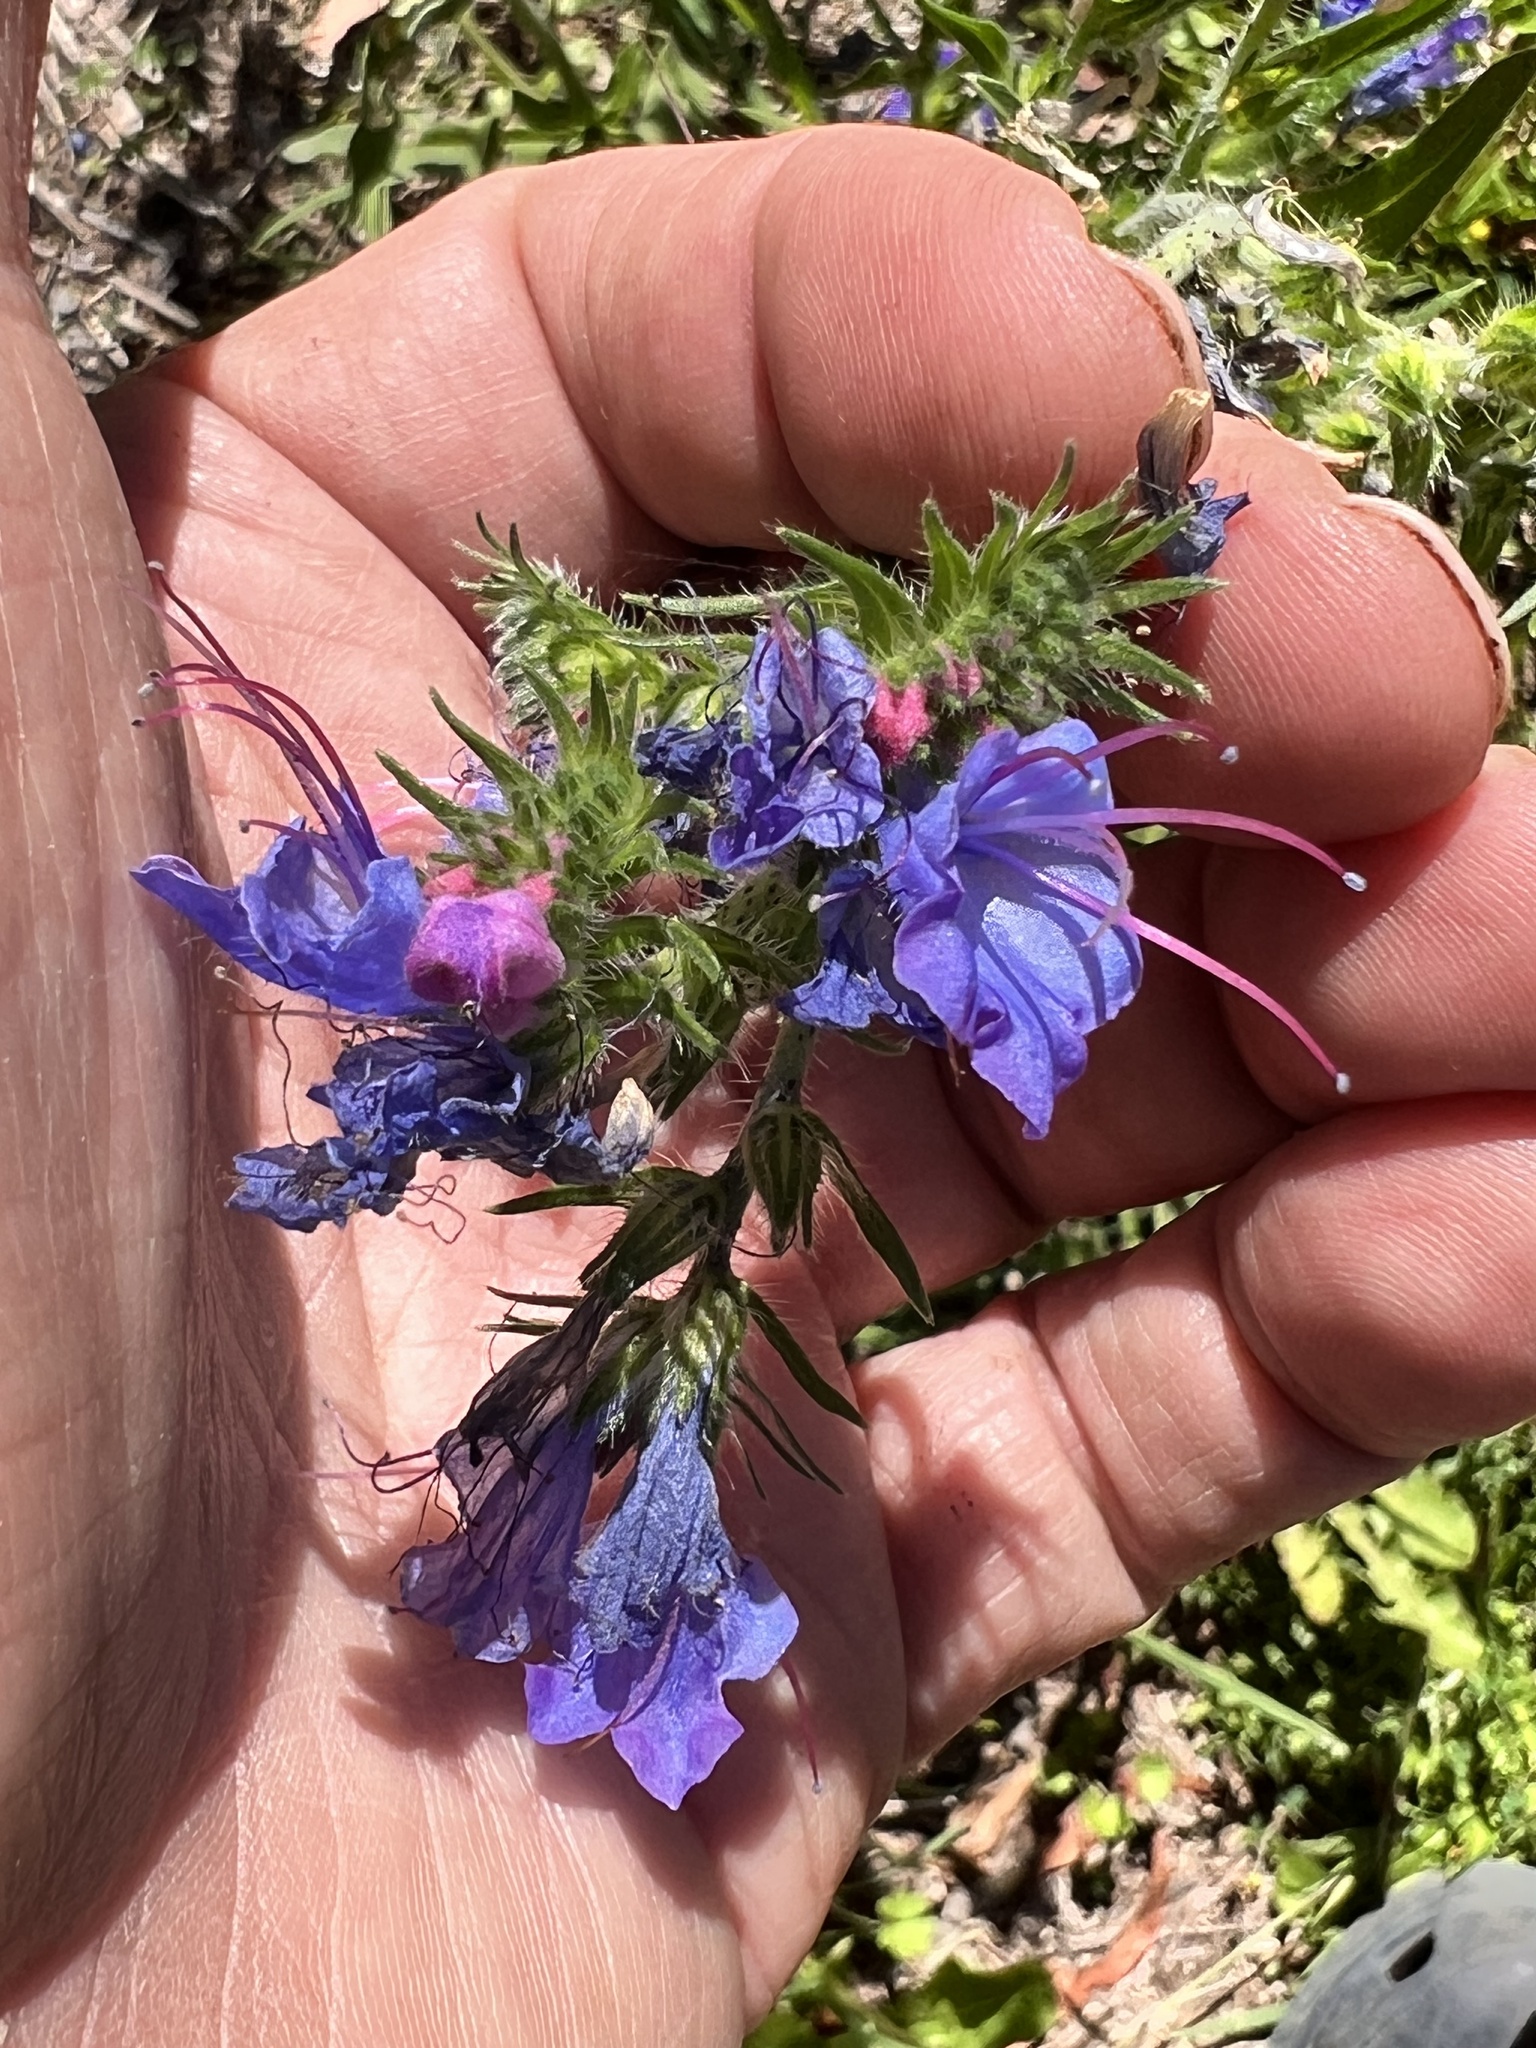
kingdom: Plantae
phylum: Tracheophyta
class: Magnoliopsida
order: Boraginales
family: Boraginaceae
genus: Echium
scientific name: Echium vulgare
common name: Common viper's bugloss
